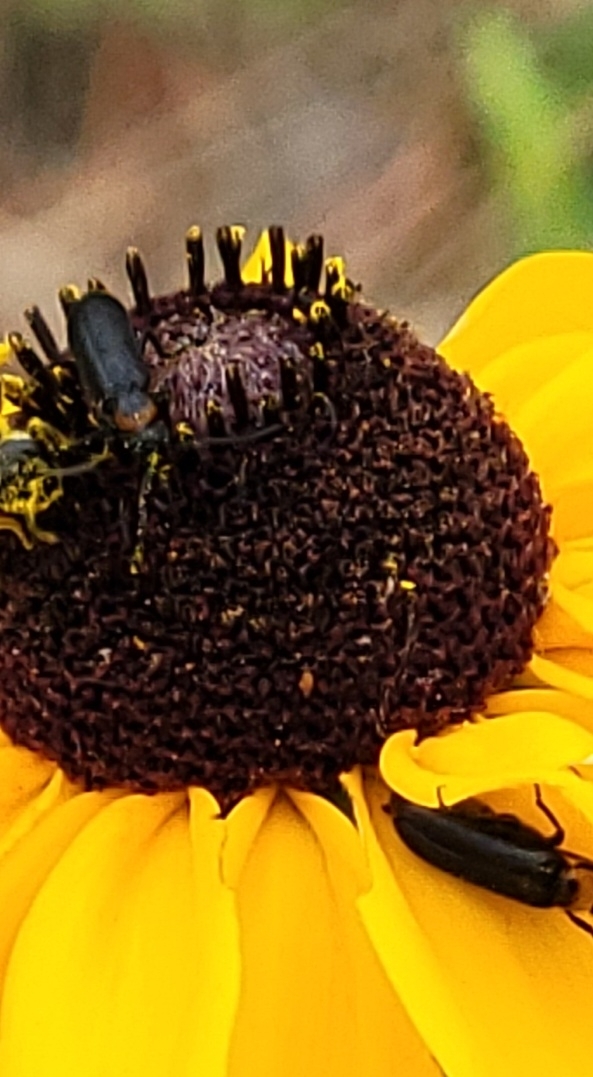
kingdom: Animalia
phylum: Arthropoda
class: Insecta
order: Coleoptera
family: Meloidae
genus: Nemognatha
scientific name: Nemognatha nemorensis
